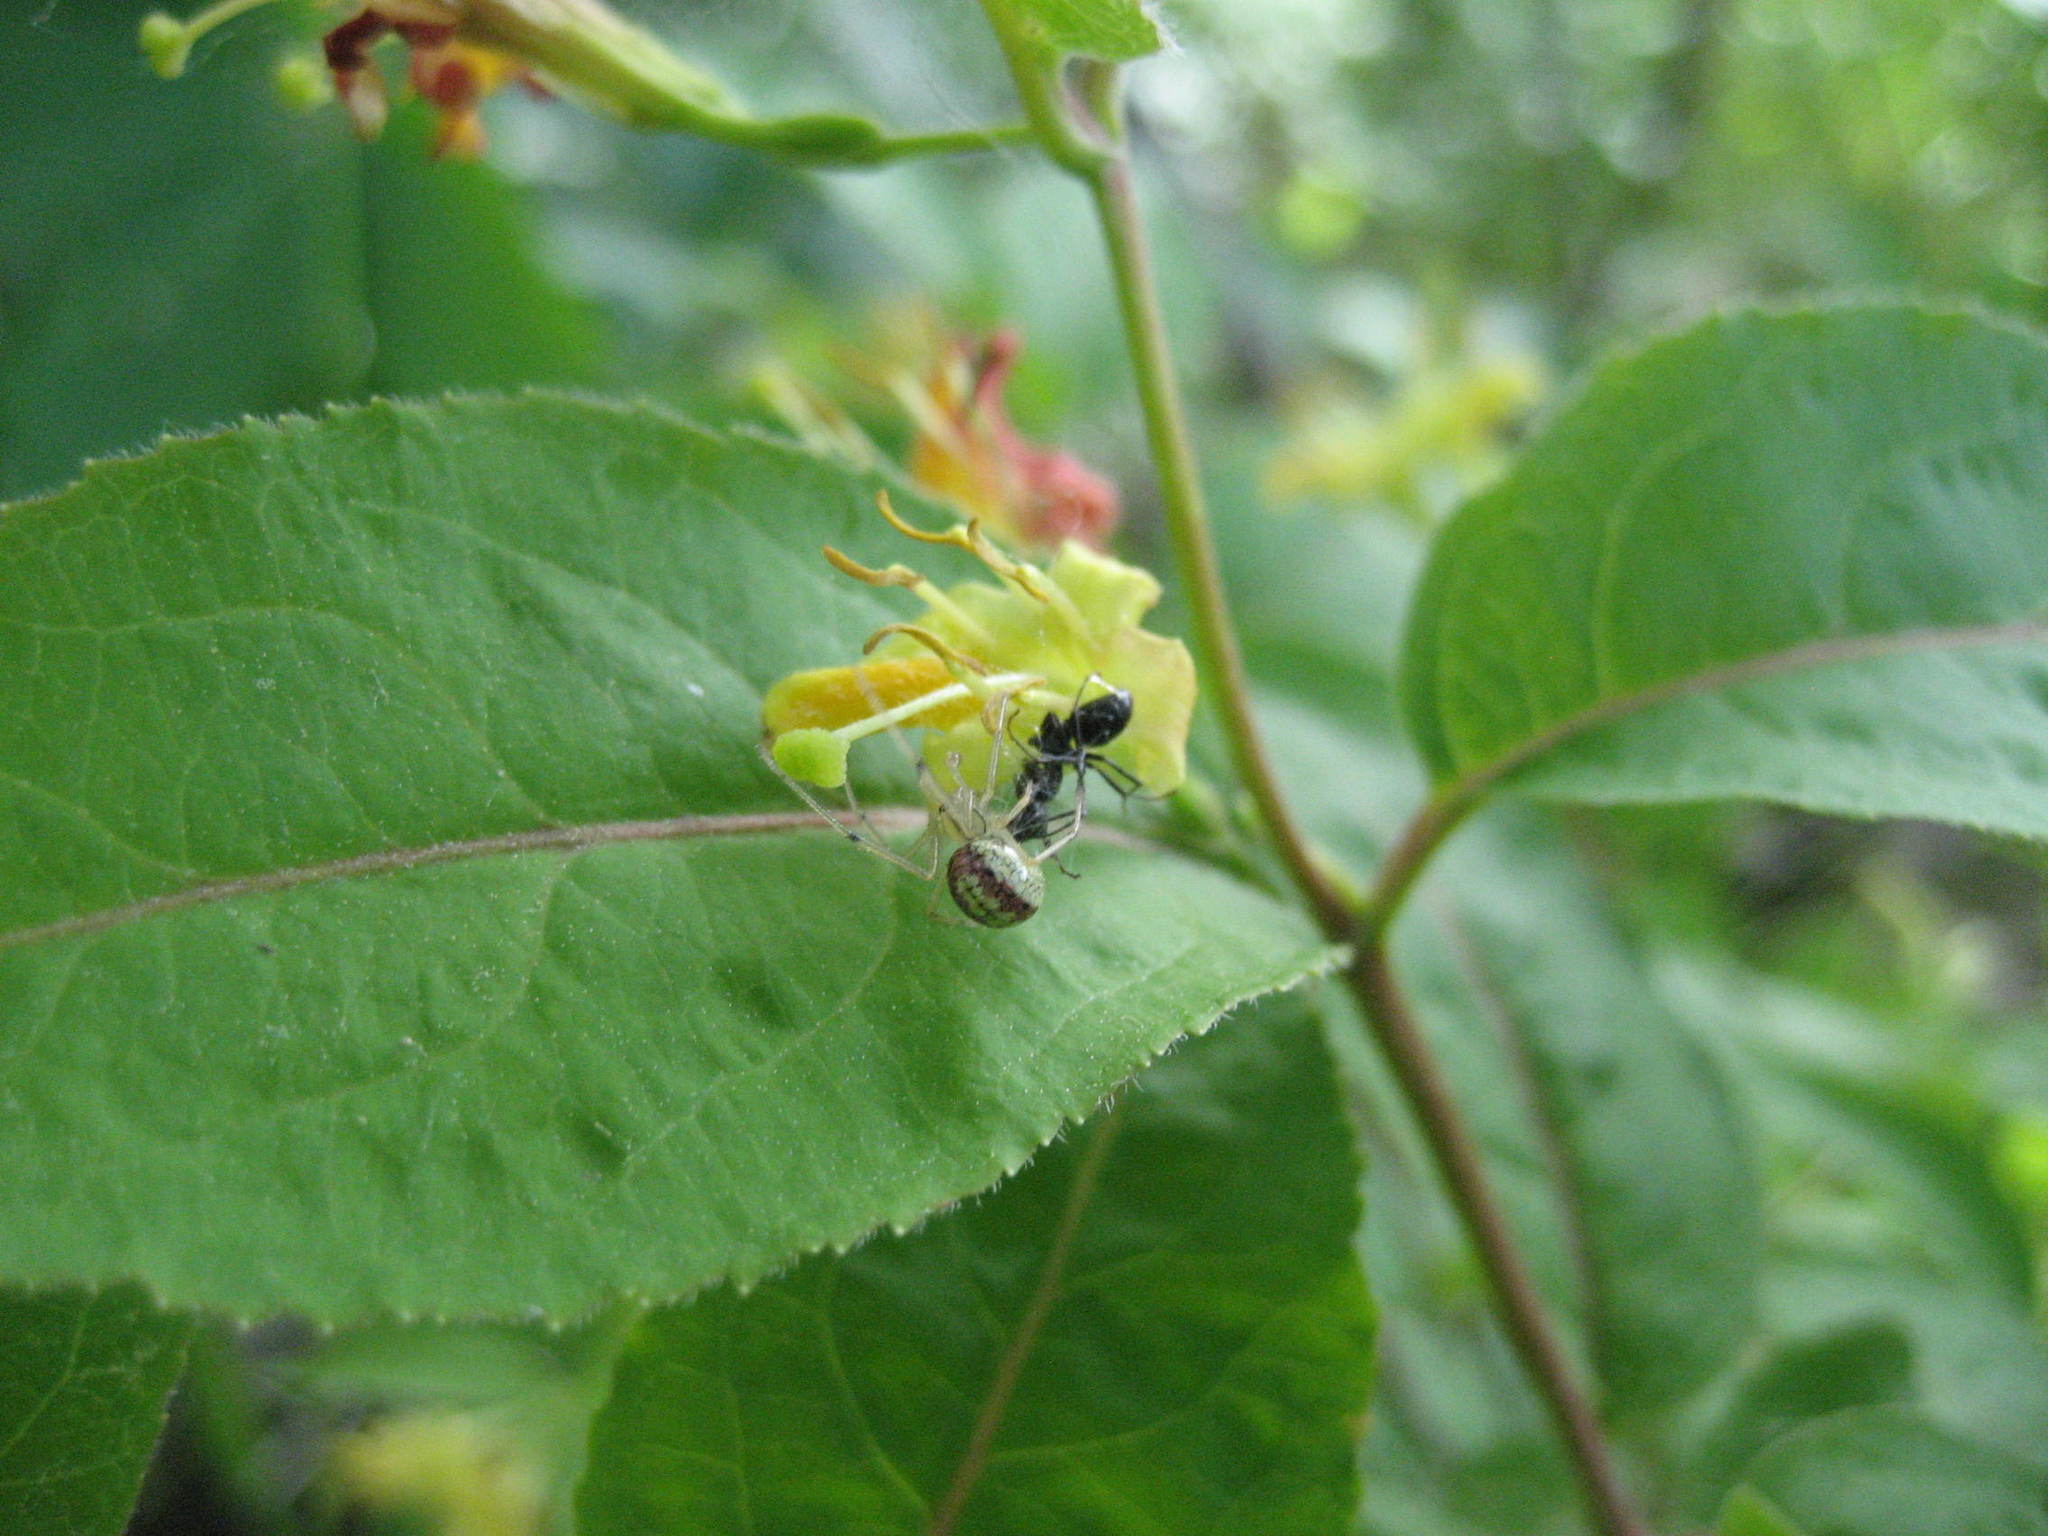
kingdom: Animalia
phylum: Arthropoda
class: Arachnida
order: Araneae
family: Theridiidae
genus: Enoplognatha
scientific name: Enoplognatha ovata
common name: Common candy-striped spider
